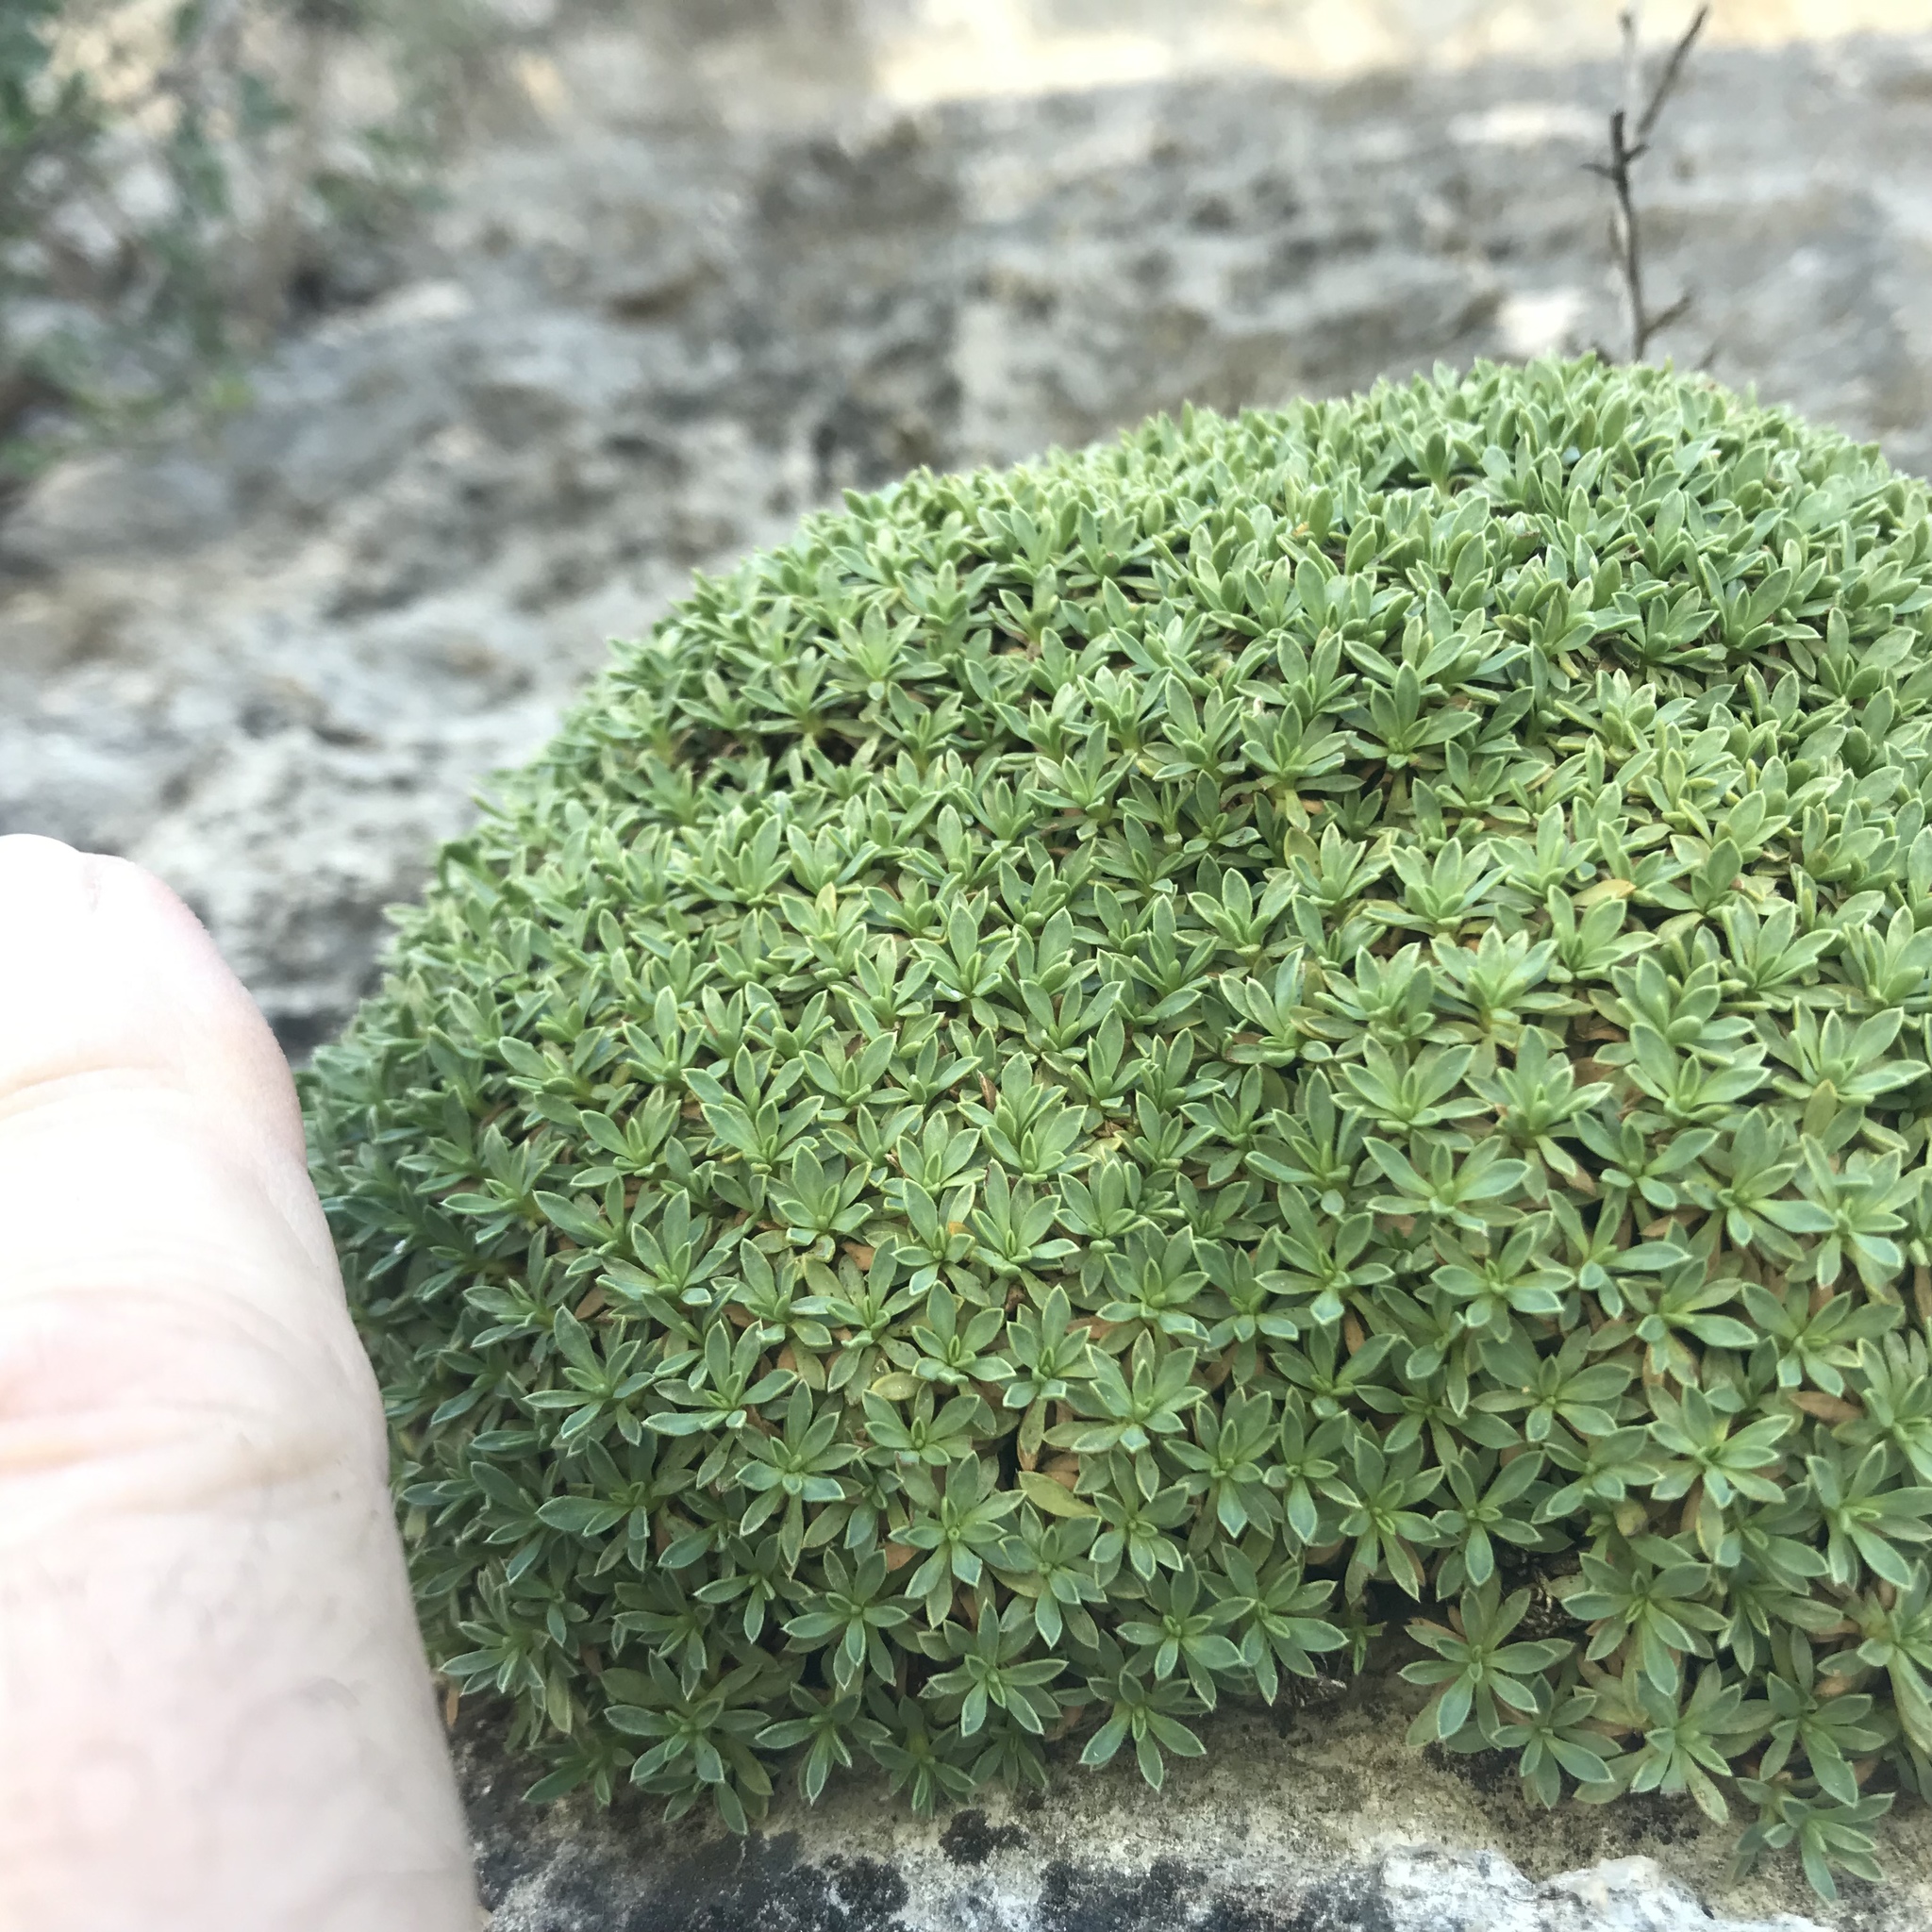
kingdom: Plantae
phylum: Tracheophyta
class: Magnoliopsida
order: Rosales
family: Rosaceae
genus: Petrophytum
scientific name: Petrophytum caespitosum
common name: Mat rockspirea
